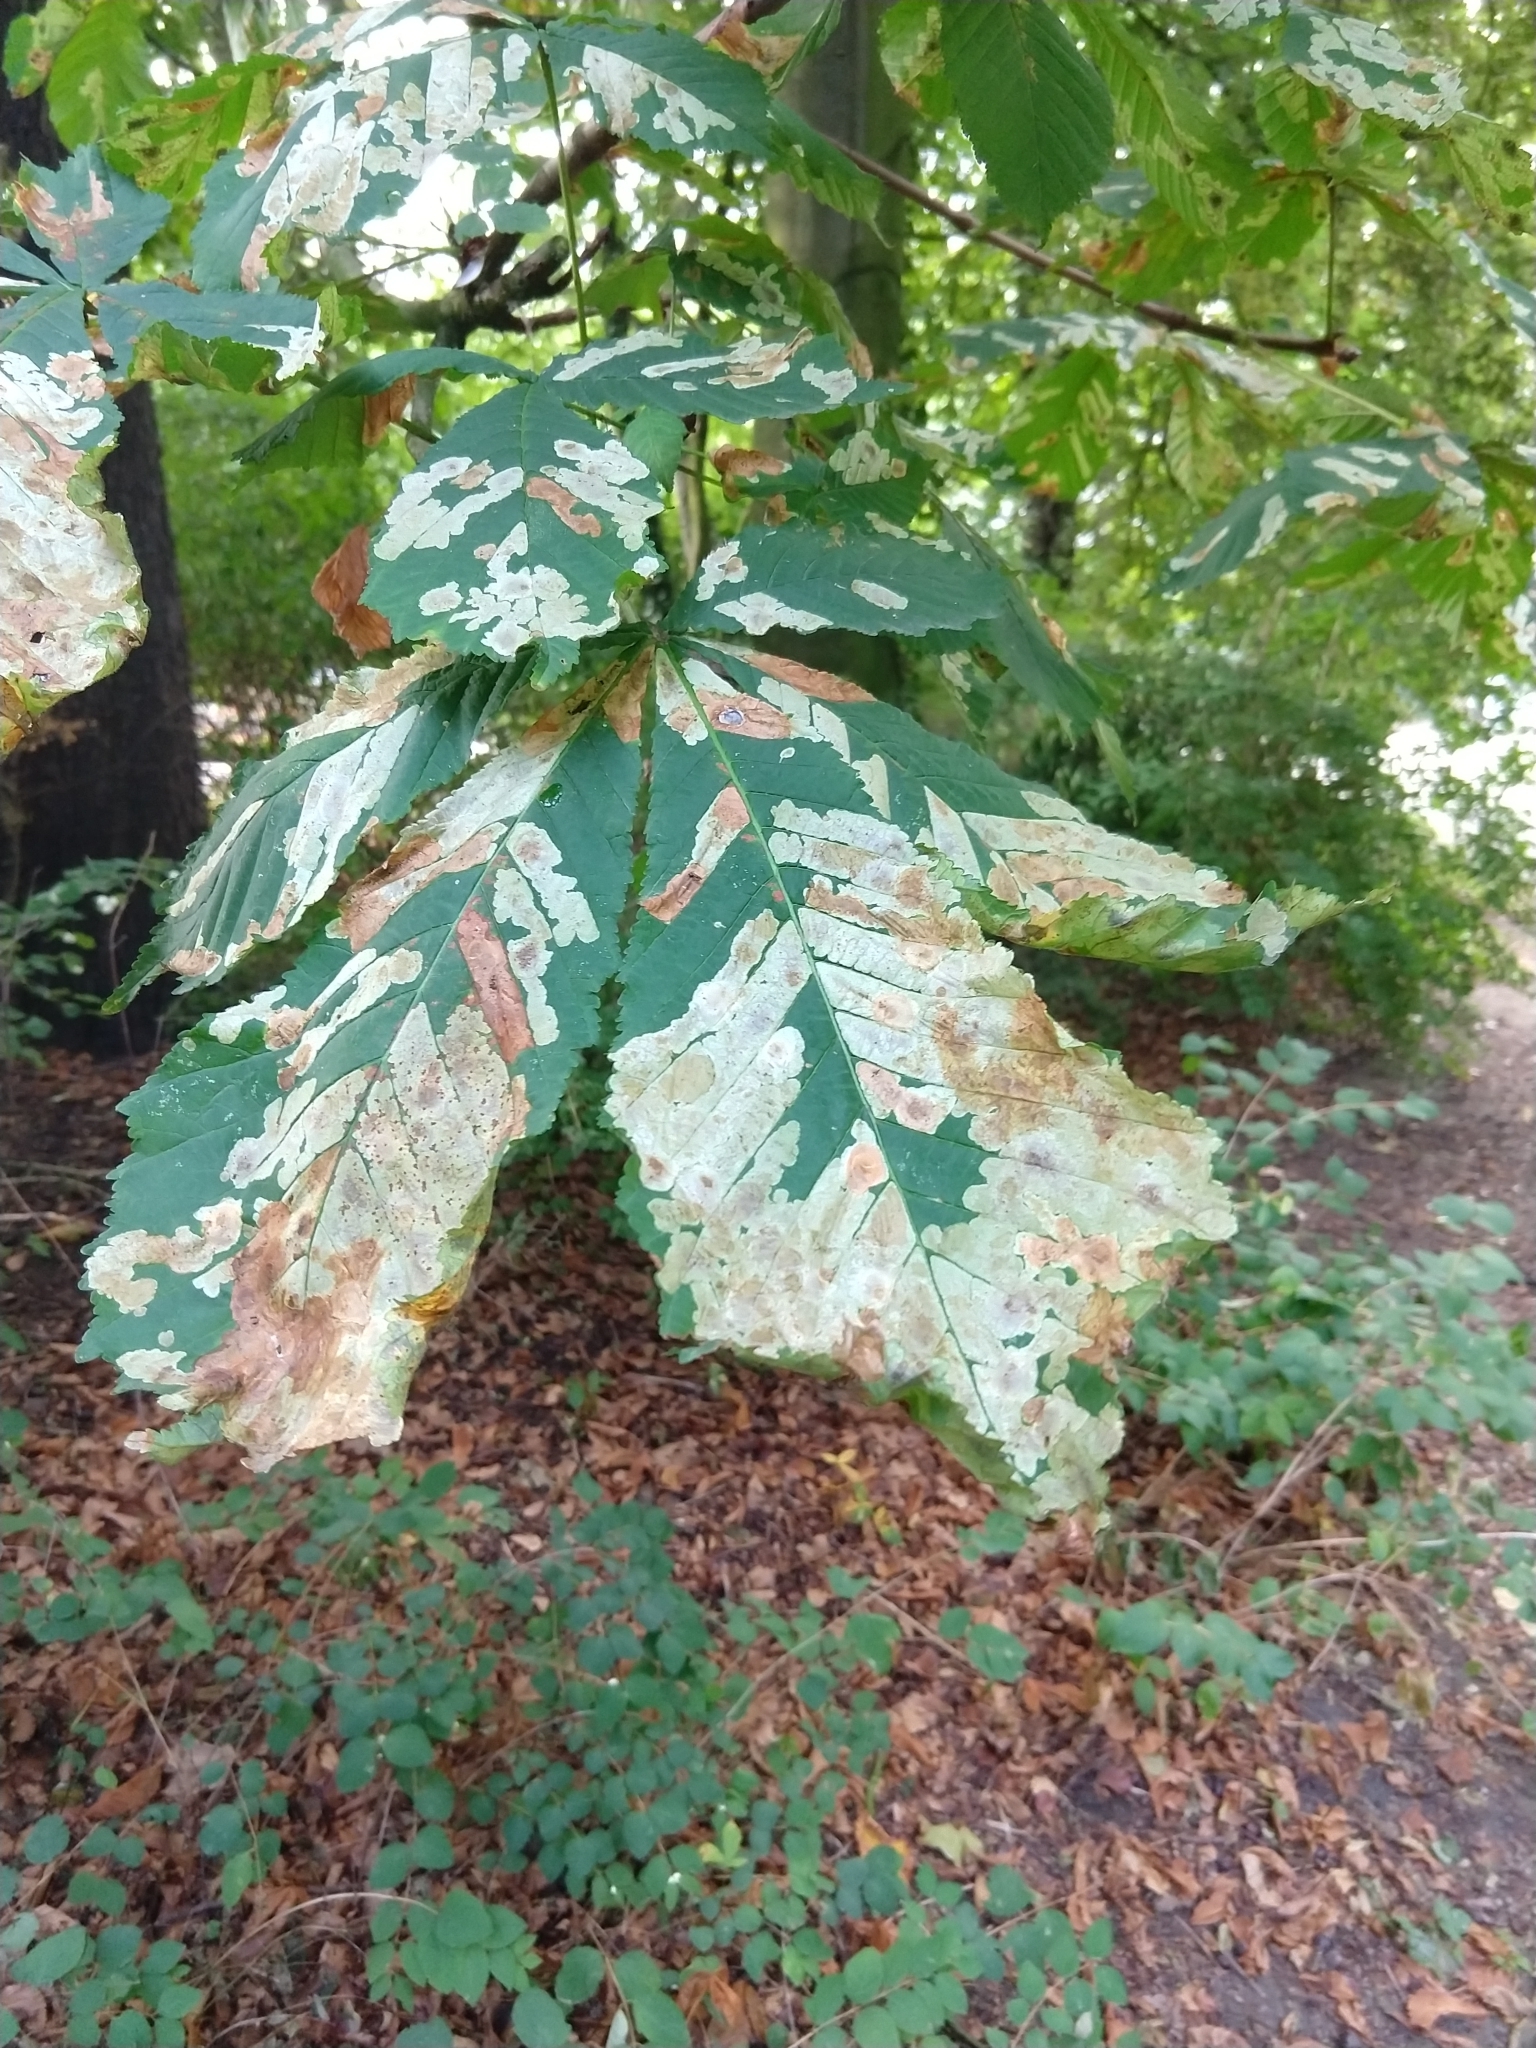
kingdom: Animalia
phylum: Arthropoda
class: Insecta
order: Lepidoptera
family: Gracillariidae
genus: Cameraria
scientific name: Cameraria ohridella
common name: Horse-chestnut leaf-miner
